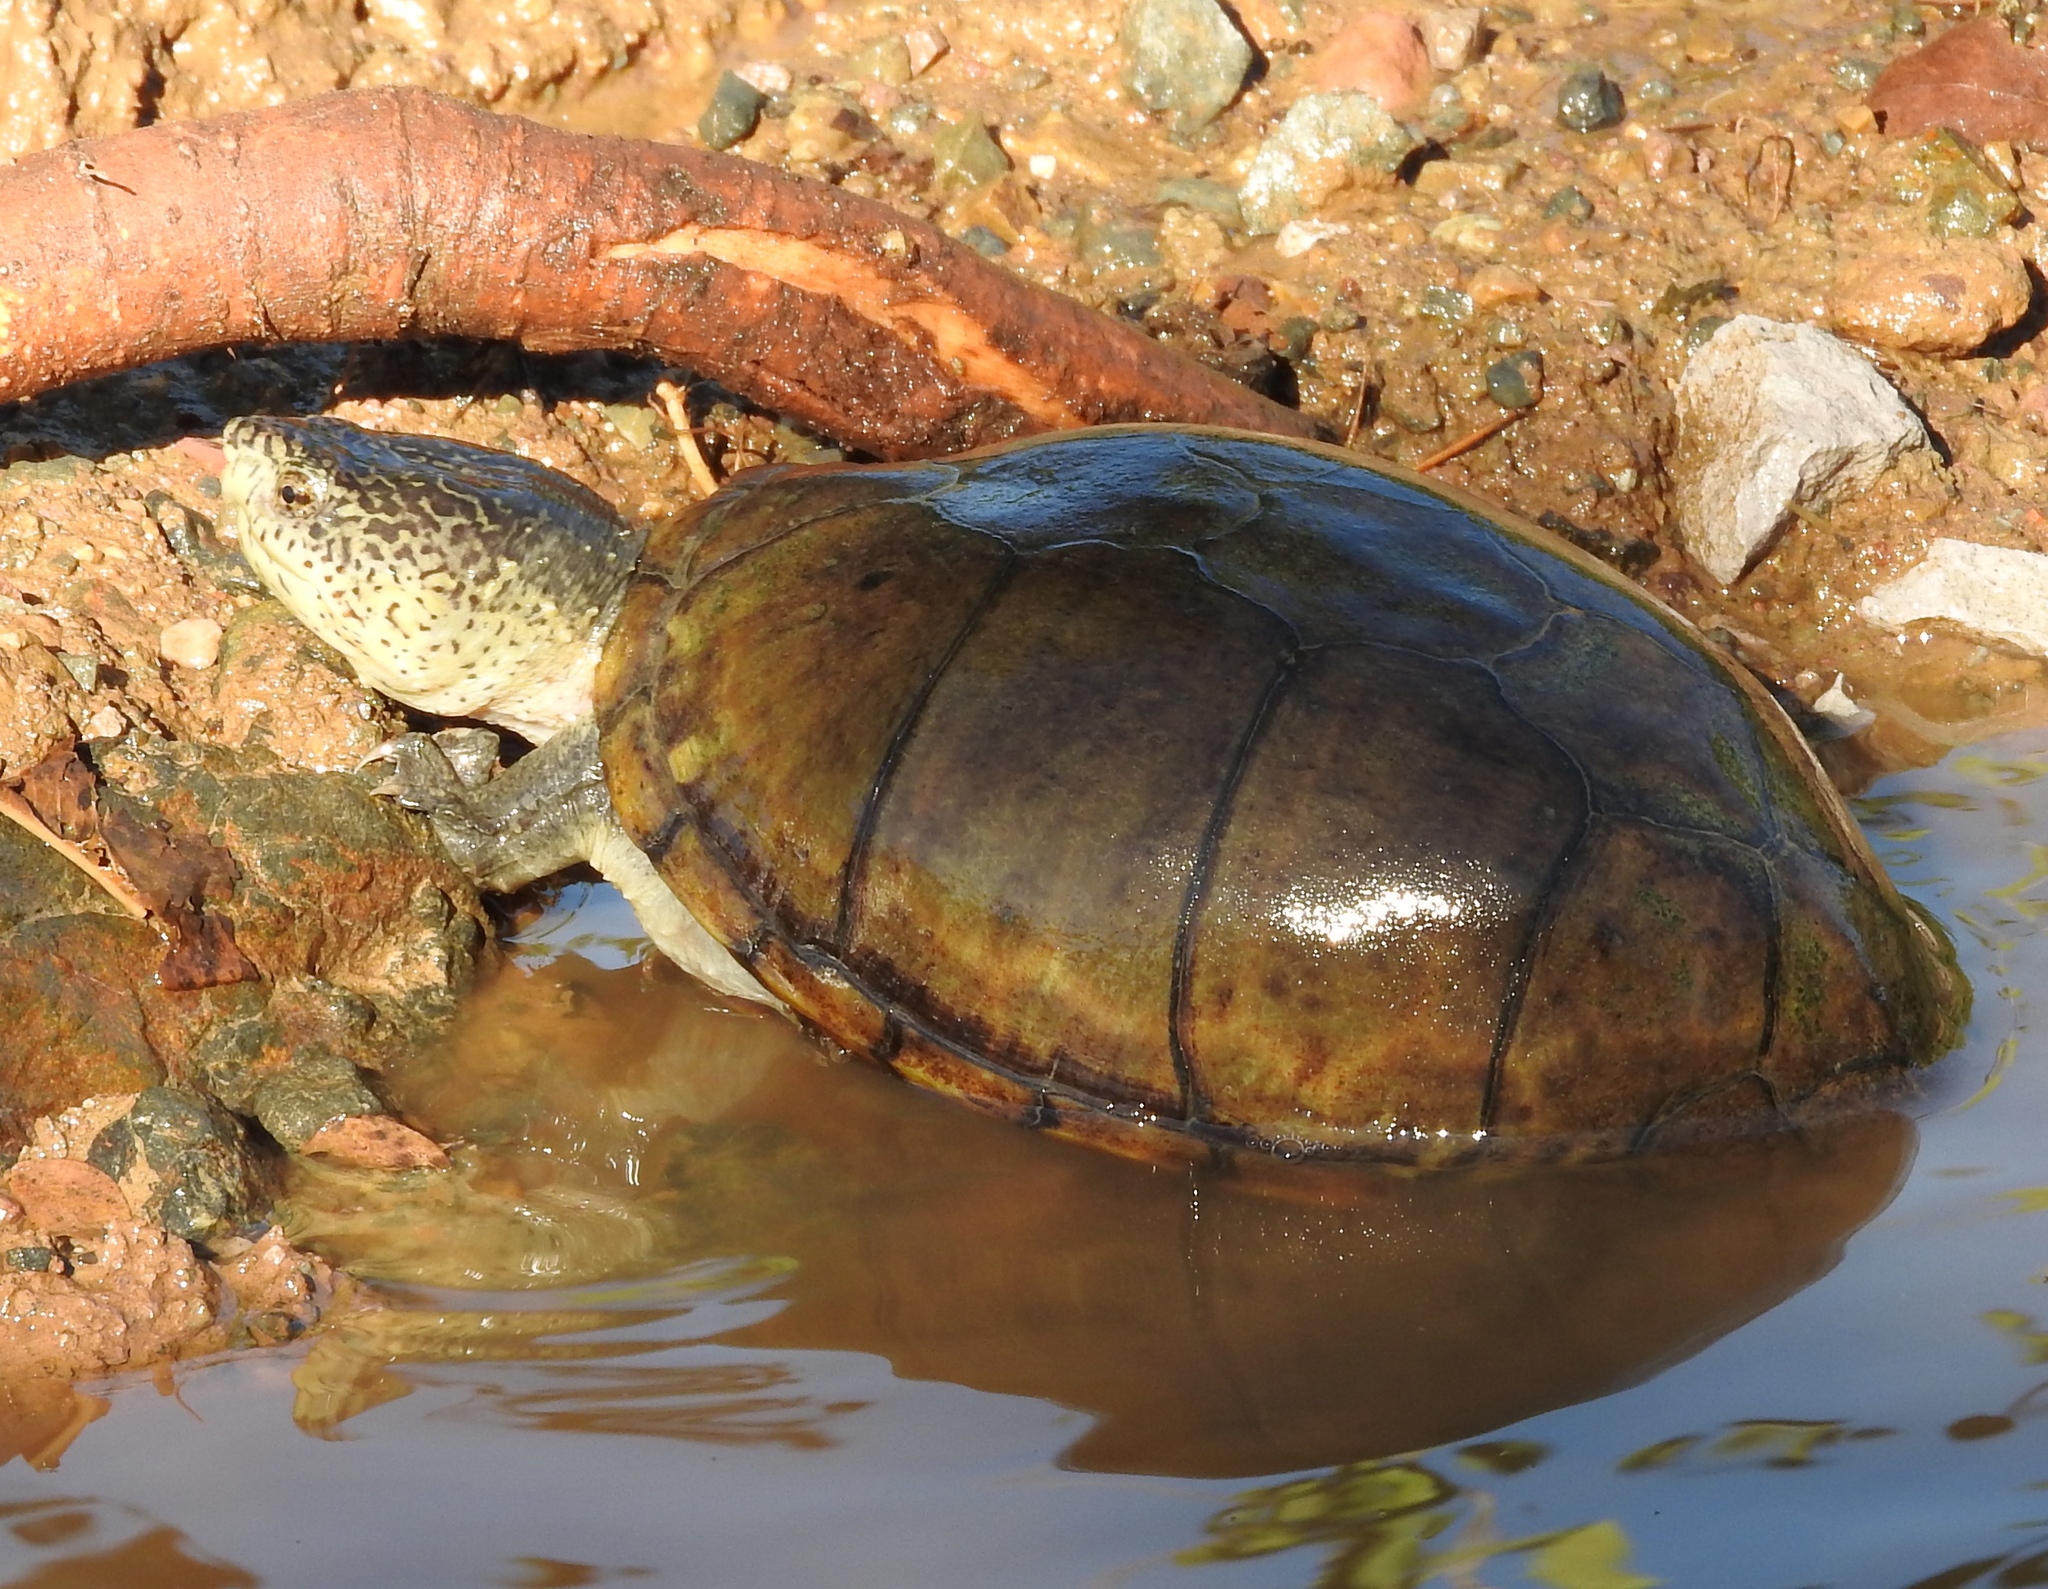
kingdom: Animalia
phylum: Chordata
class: Testudines
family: Kinosternidae
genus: Kinosternon
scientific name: Kinosternon integrum
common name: Mexican mud turtle
